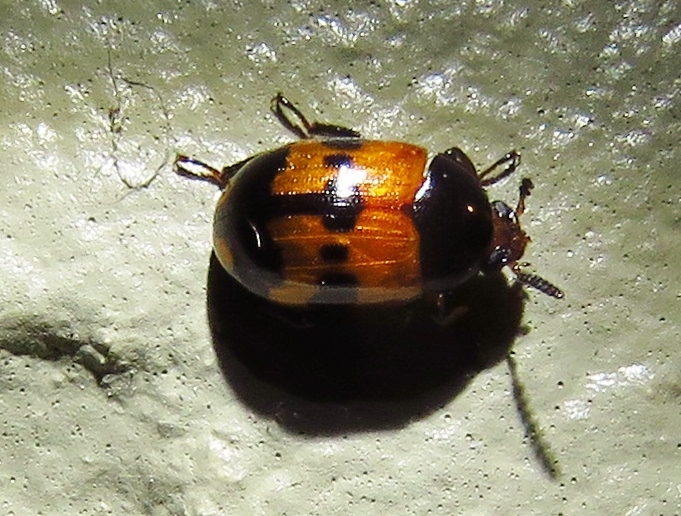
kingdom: Animalia
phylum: Arthropoda
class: Insecta
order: Coleoptera
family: Tenebrionidae
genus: Diaperis
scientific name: Diaperis nigronotata
